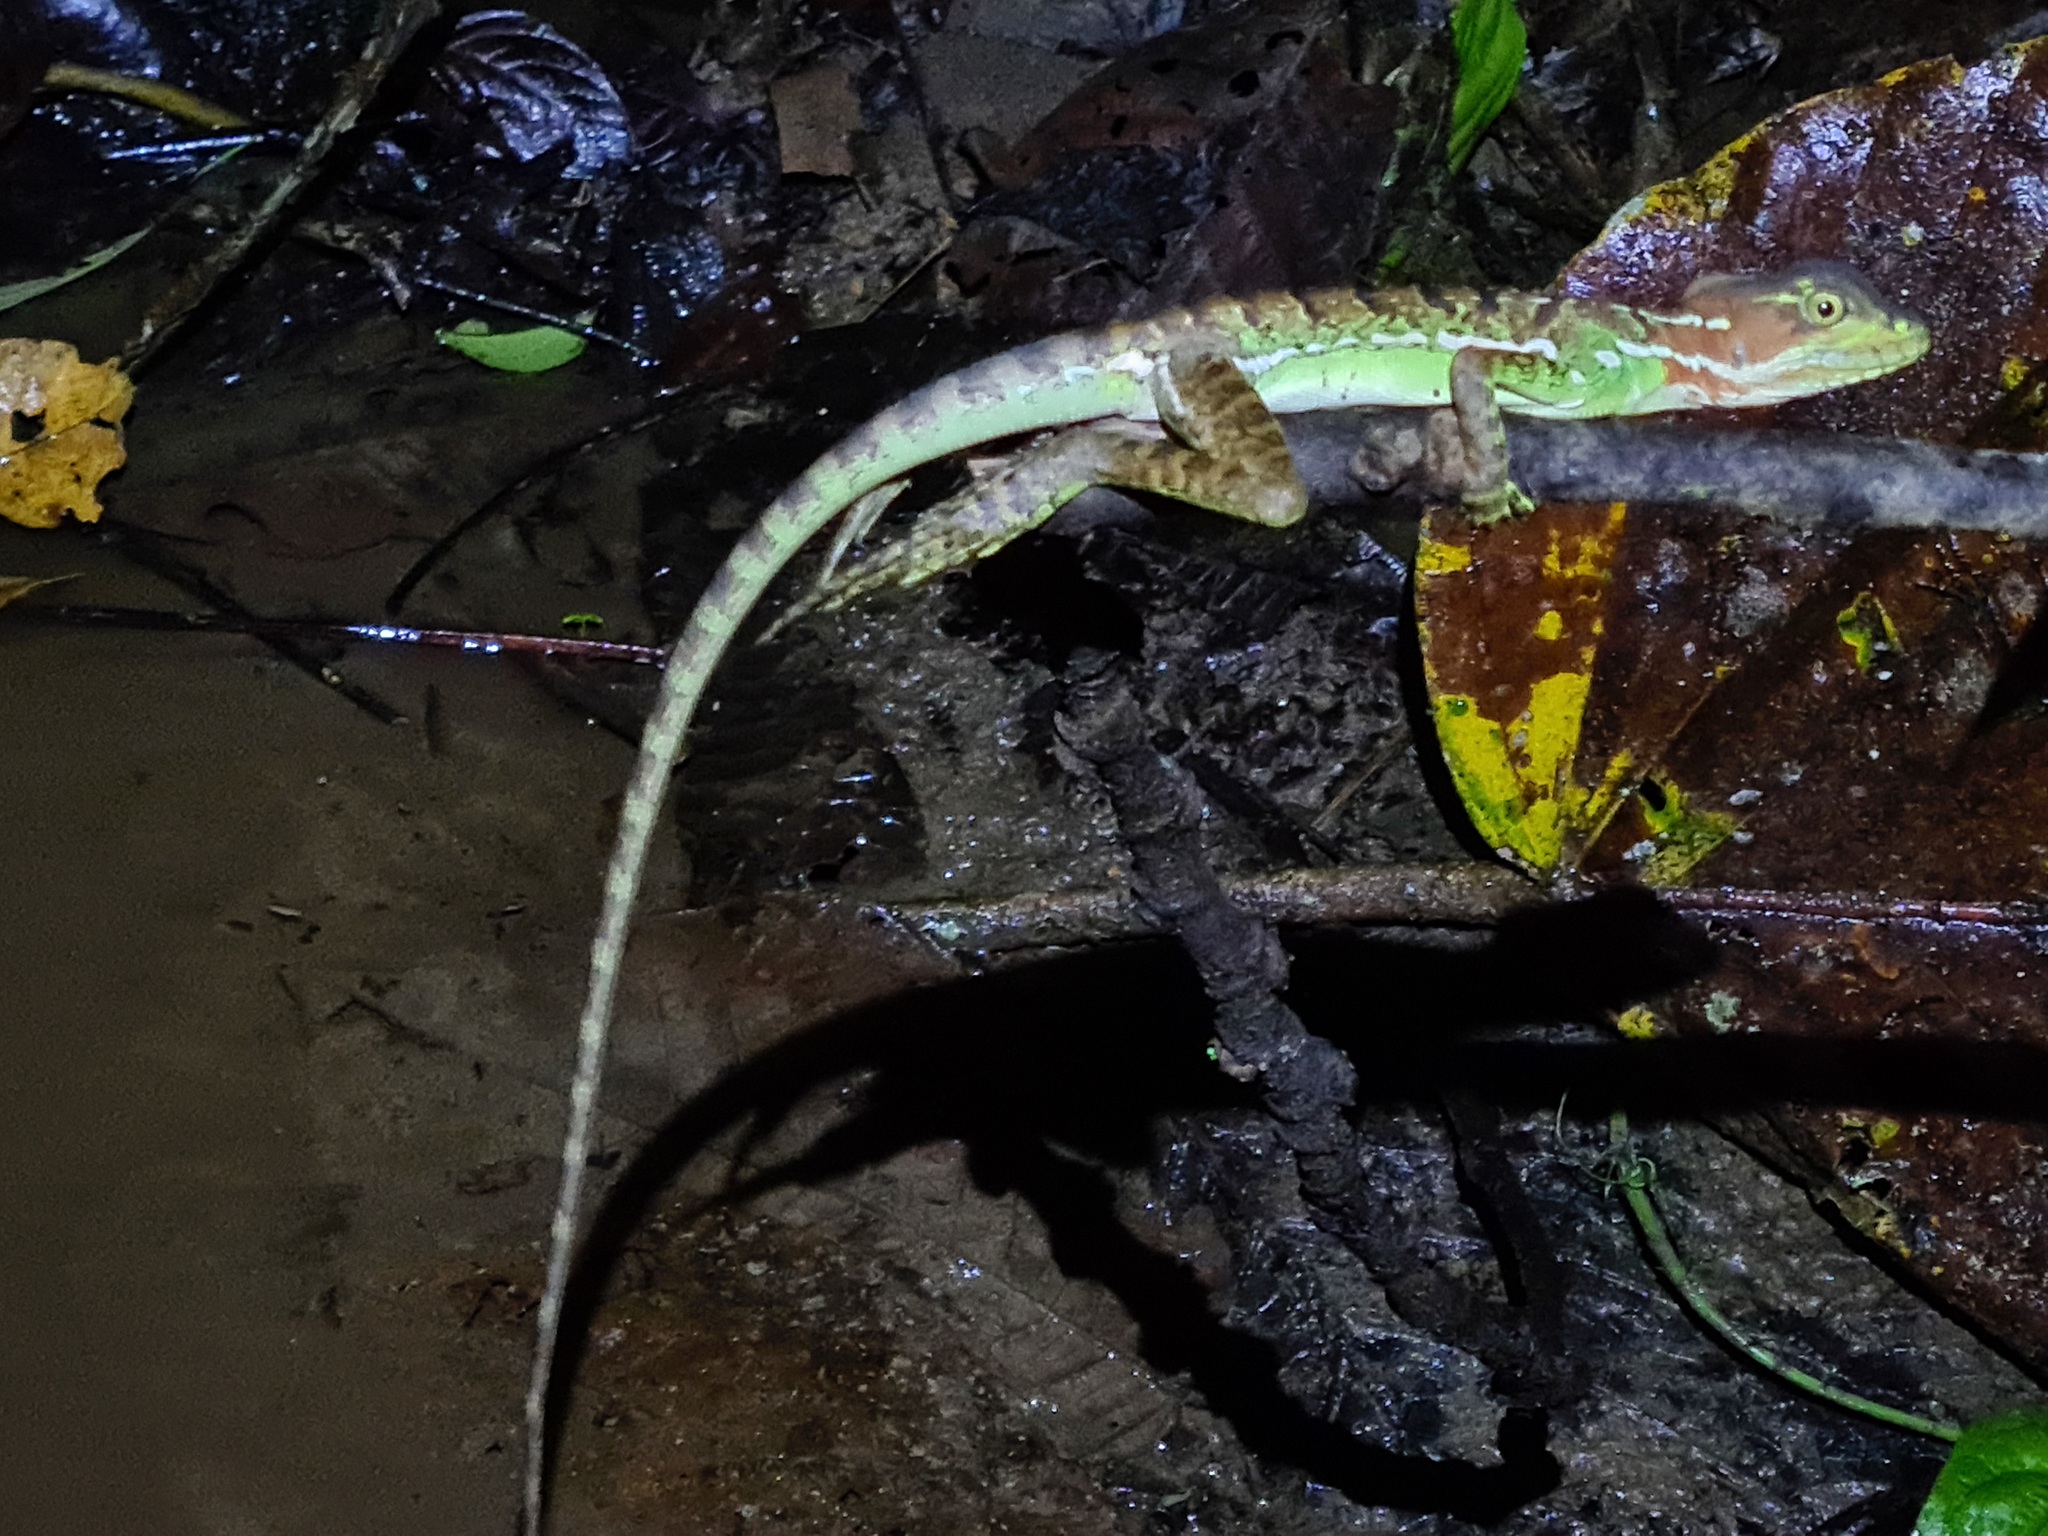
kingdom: Animalia
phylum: Chordata
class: Squamata
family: Corytophanidae
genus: Basiliscus
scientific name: Basiliscus galeritus
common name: Western basilisk
